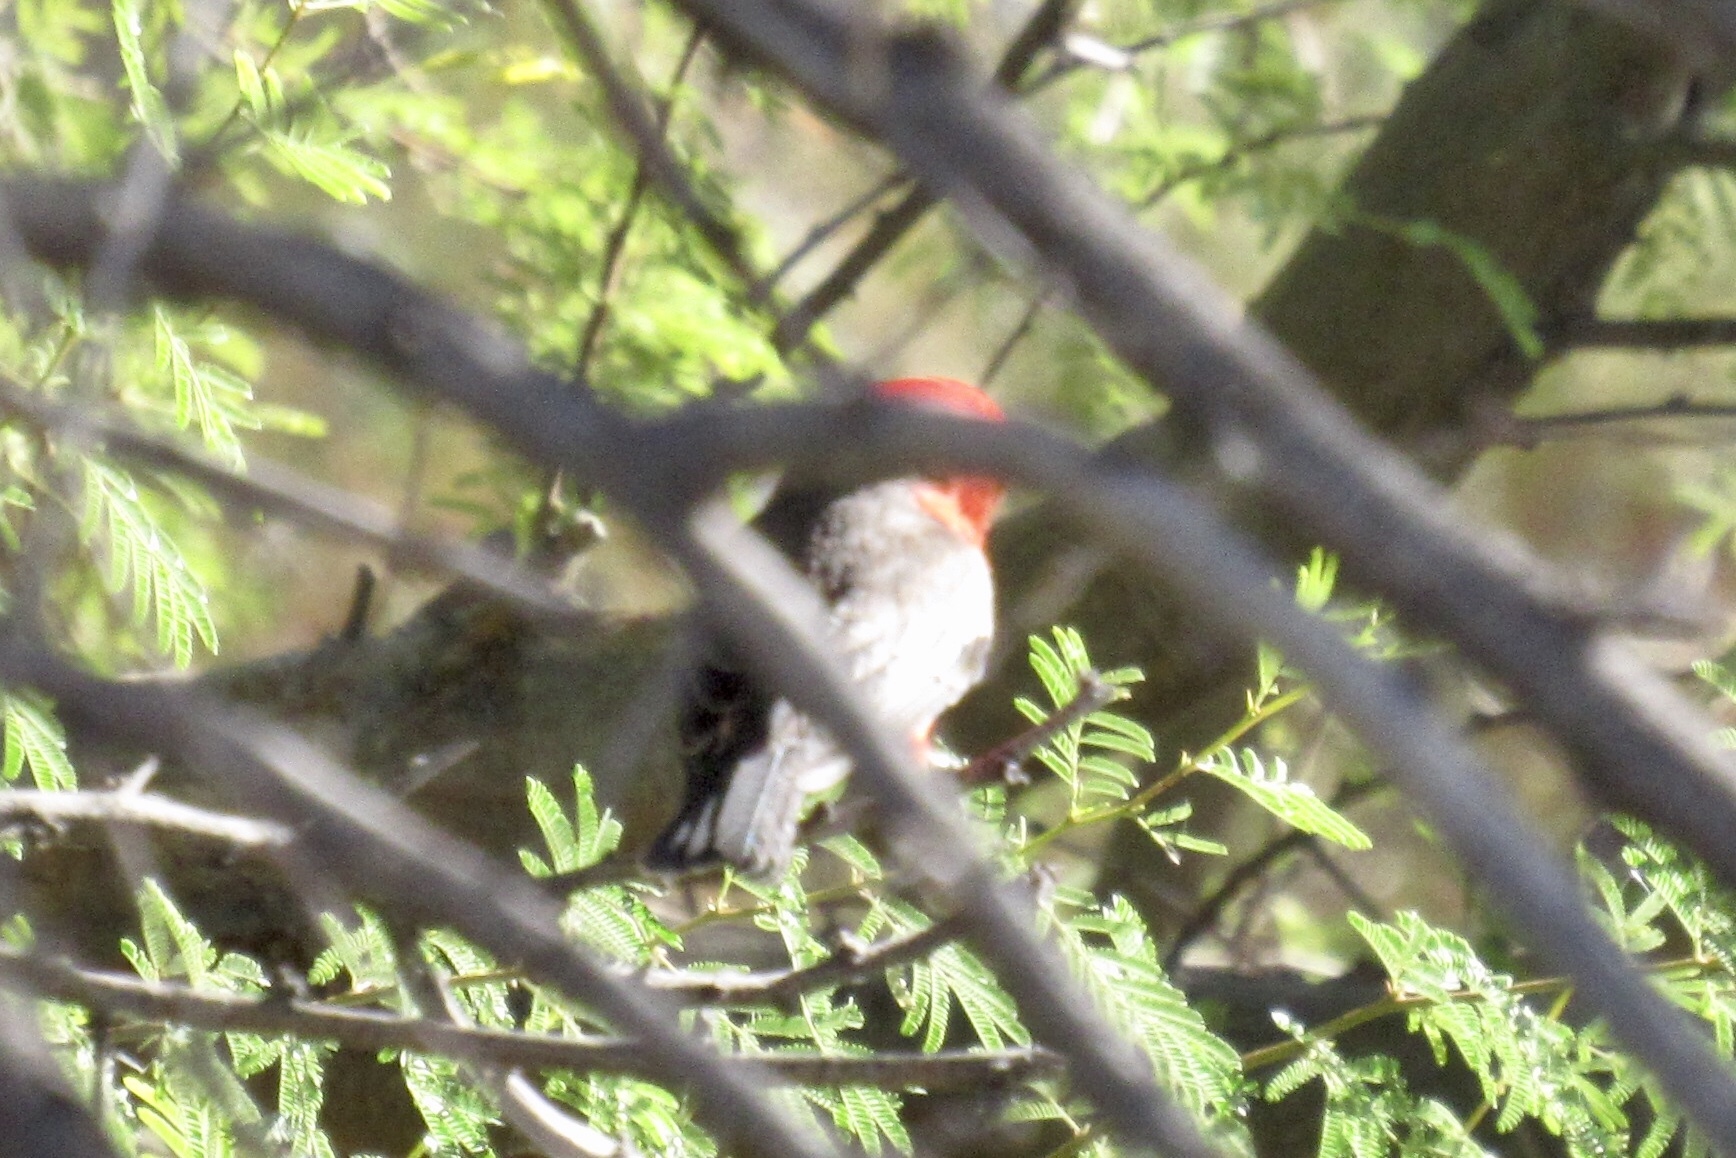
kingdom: Animalia
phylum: Chordata
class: Aves
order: Passeriformes
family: Tyrannidae
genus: Pyrocephalus
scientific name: Pyrocephalus rubinus
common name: Vermilion flycatcher
